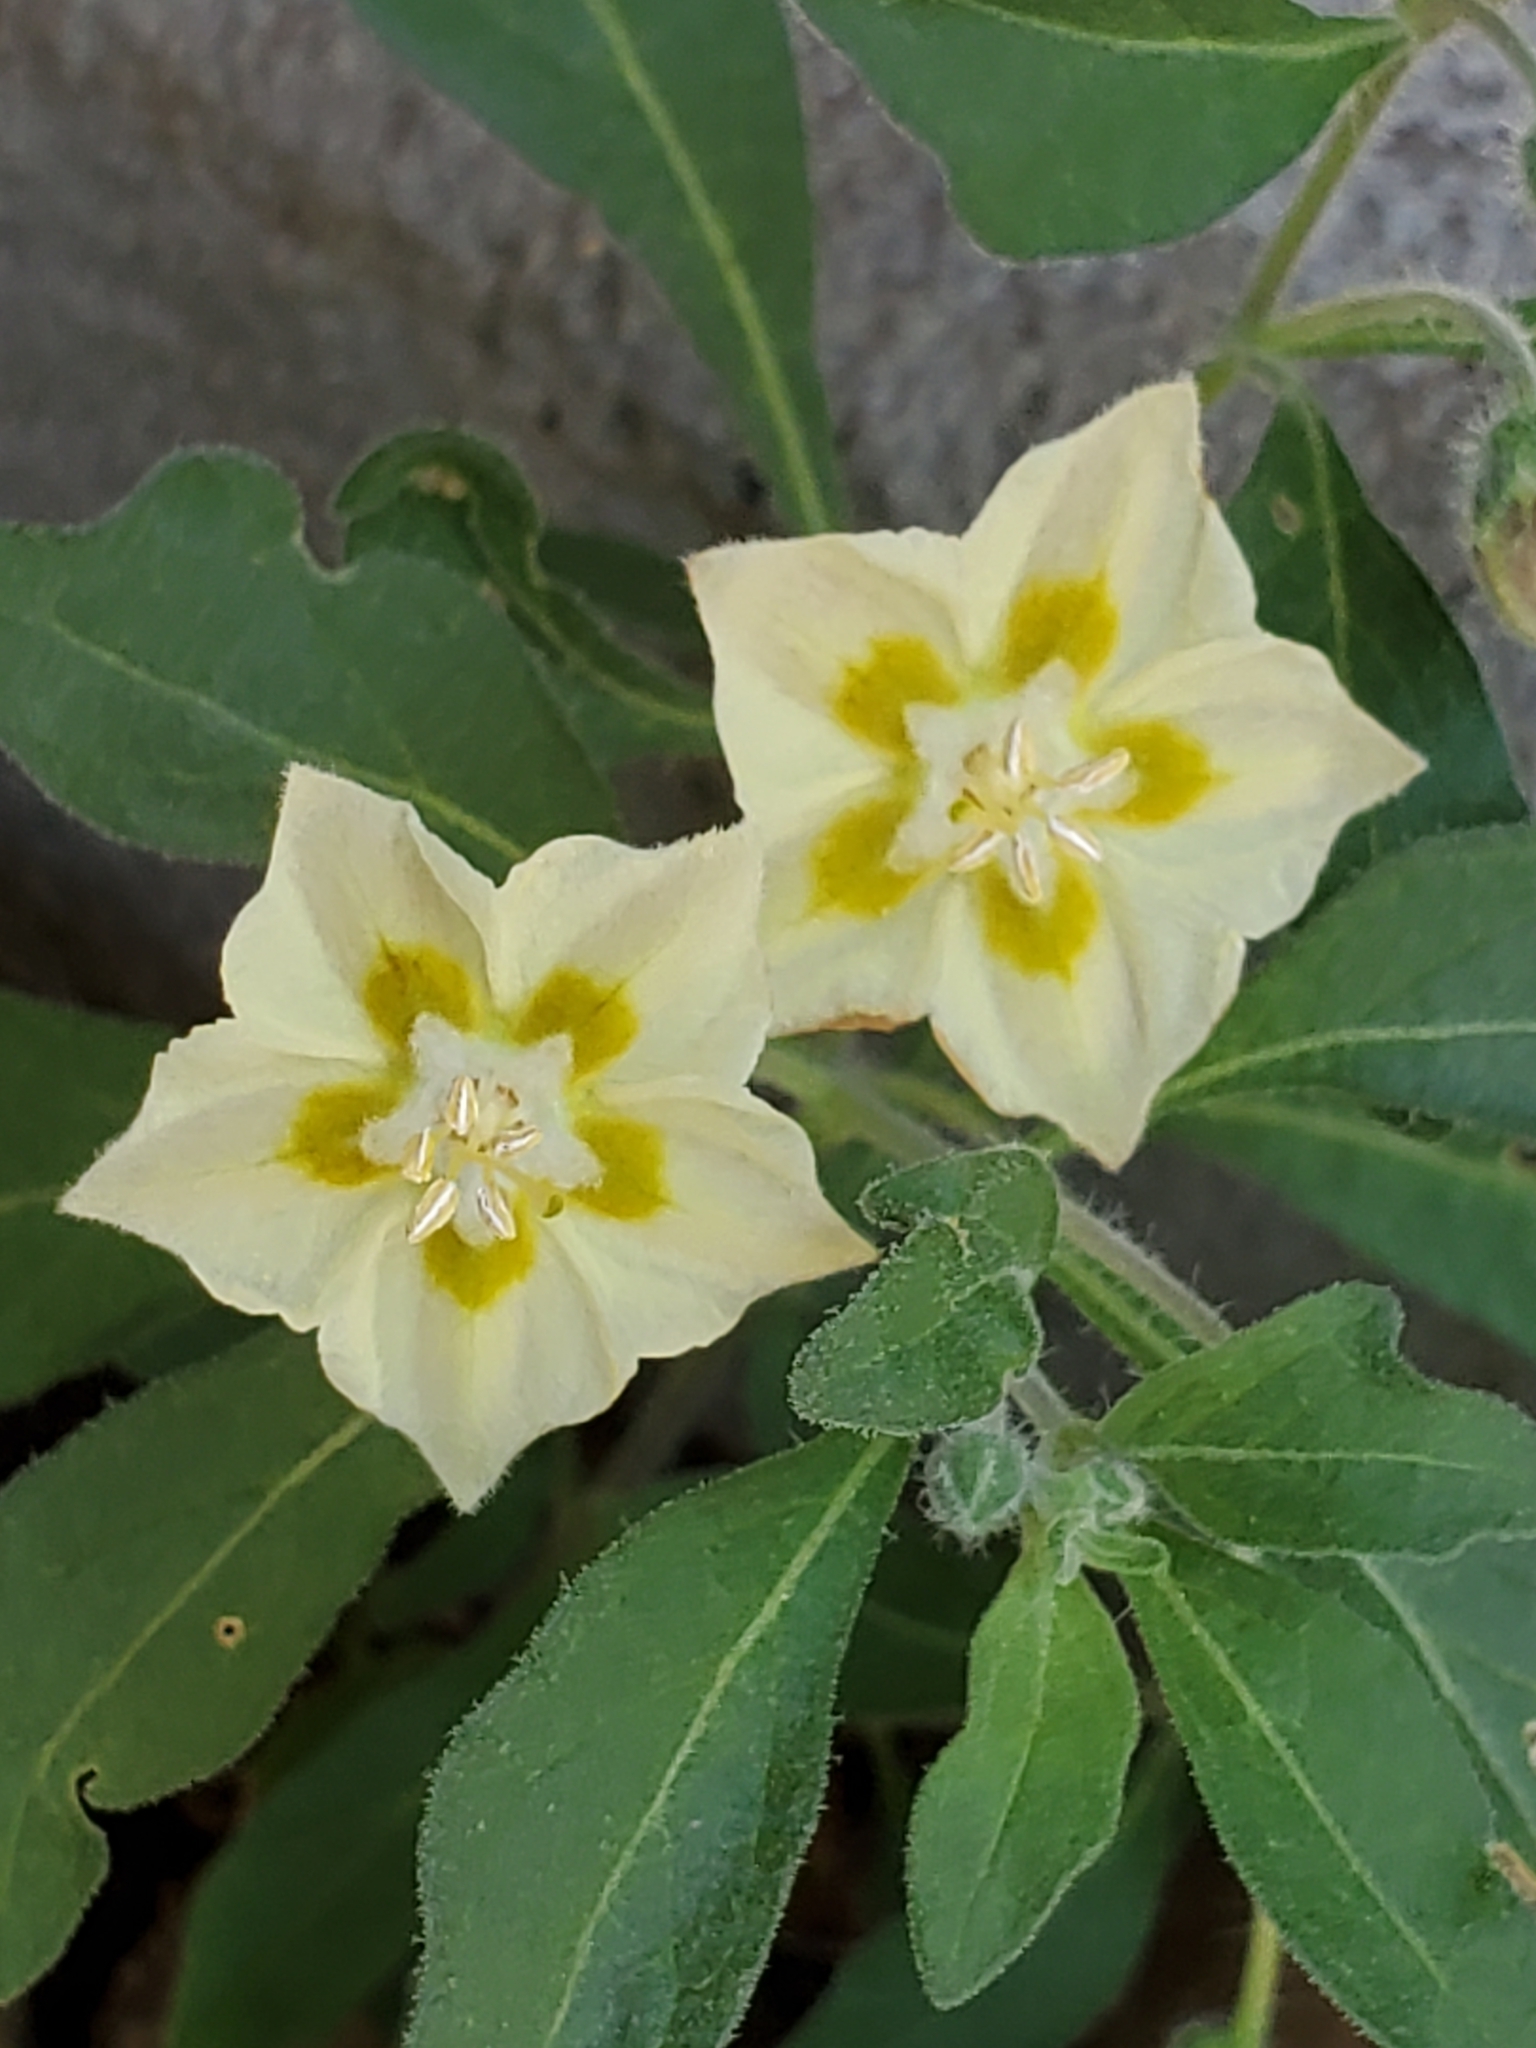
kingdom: Plantae
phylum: Tracheophyta
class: Magnoliopsida
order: Solanales
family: Solanaceae
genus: Chamaesaracha
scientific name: Chamaesaracha edwardsiana
